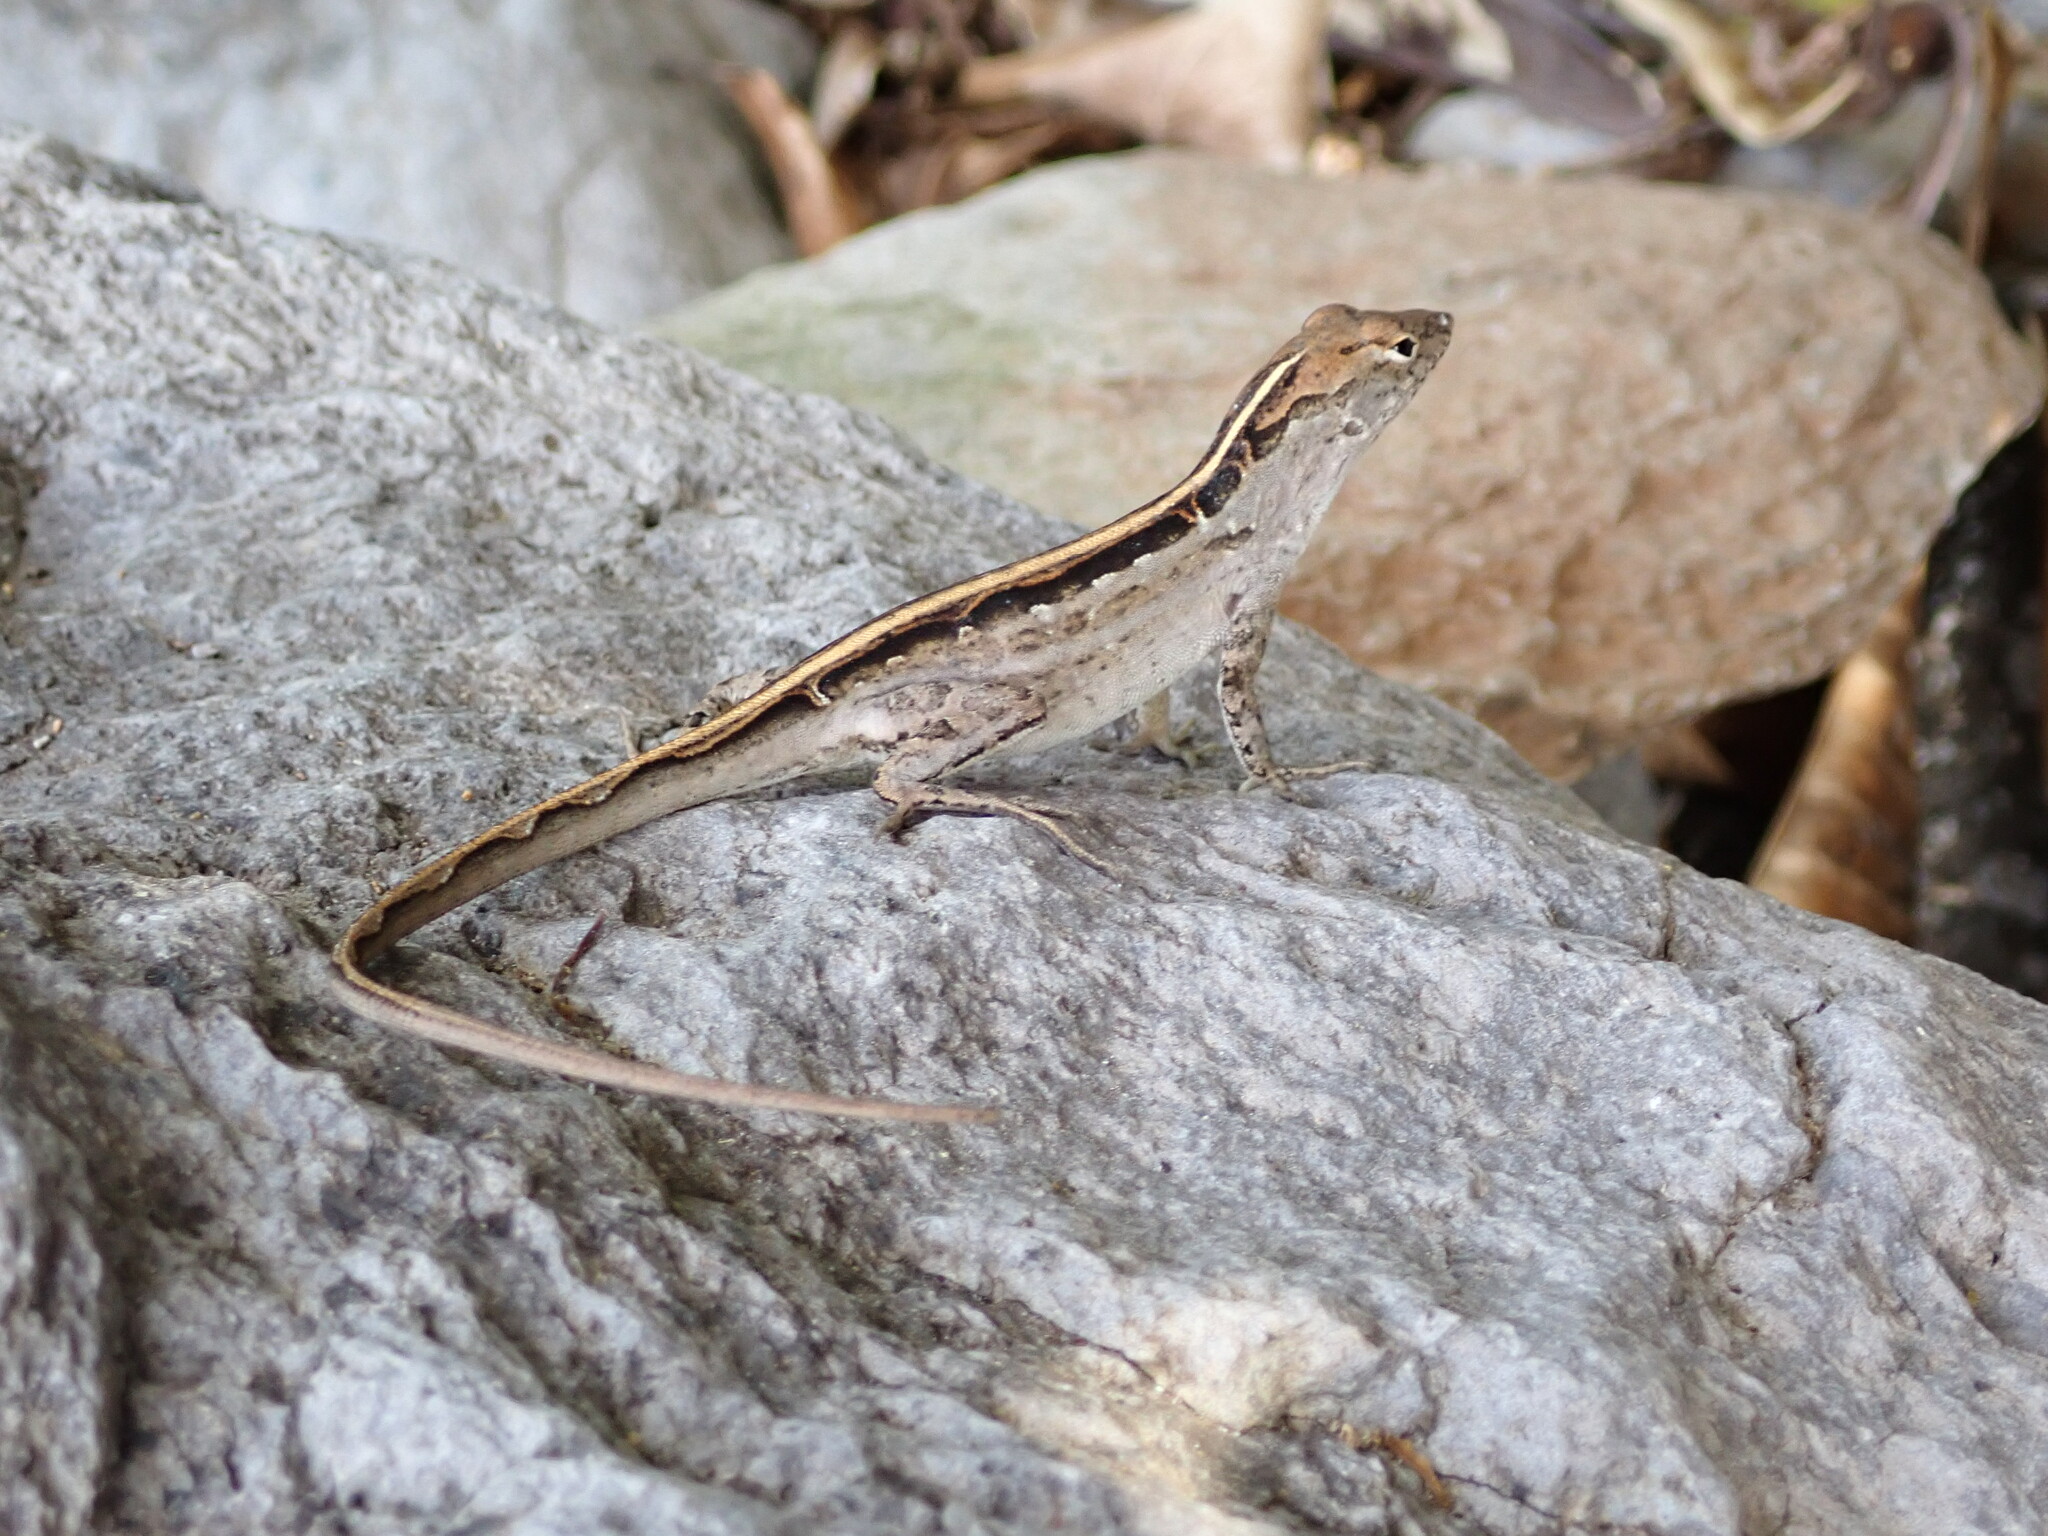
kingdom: Animalia
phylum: Chordata
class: Squamata
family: Dactyloidae
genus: Anolis
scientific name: Anolis sagrei
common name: Brown anole
